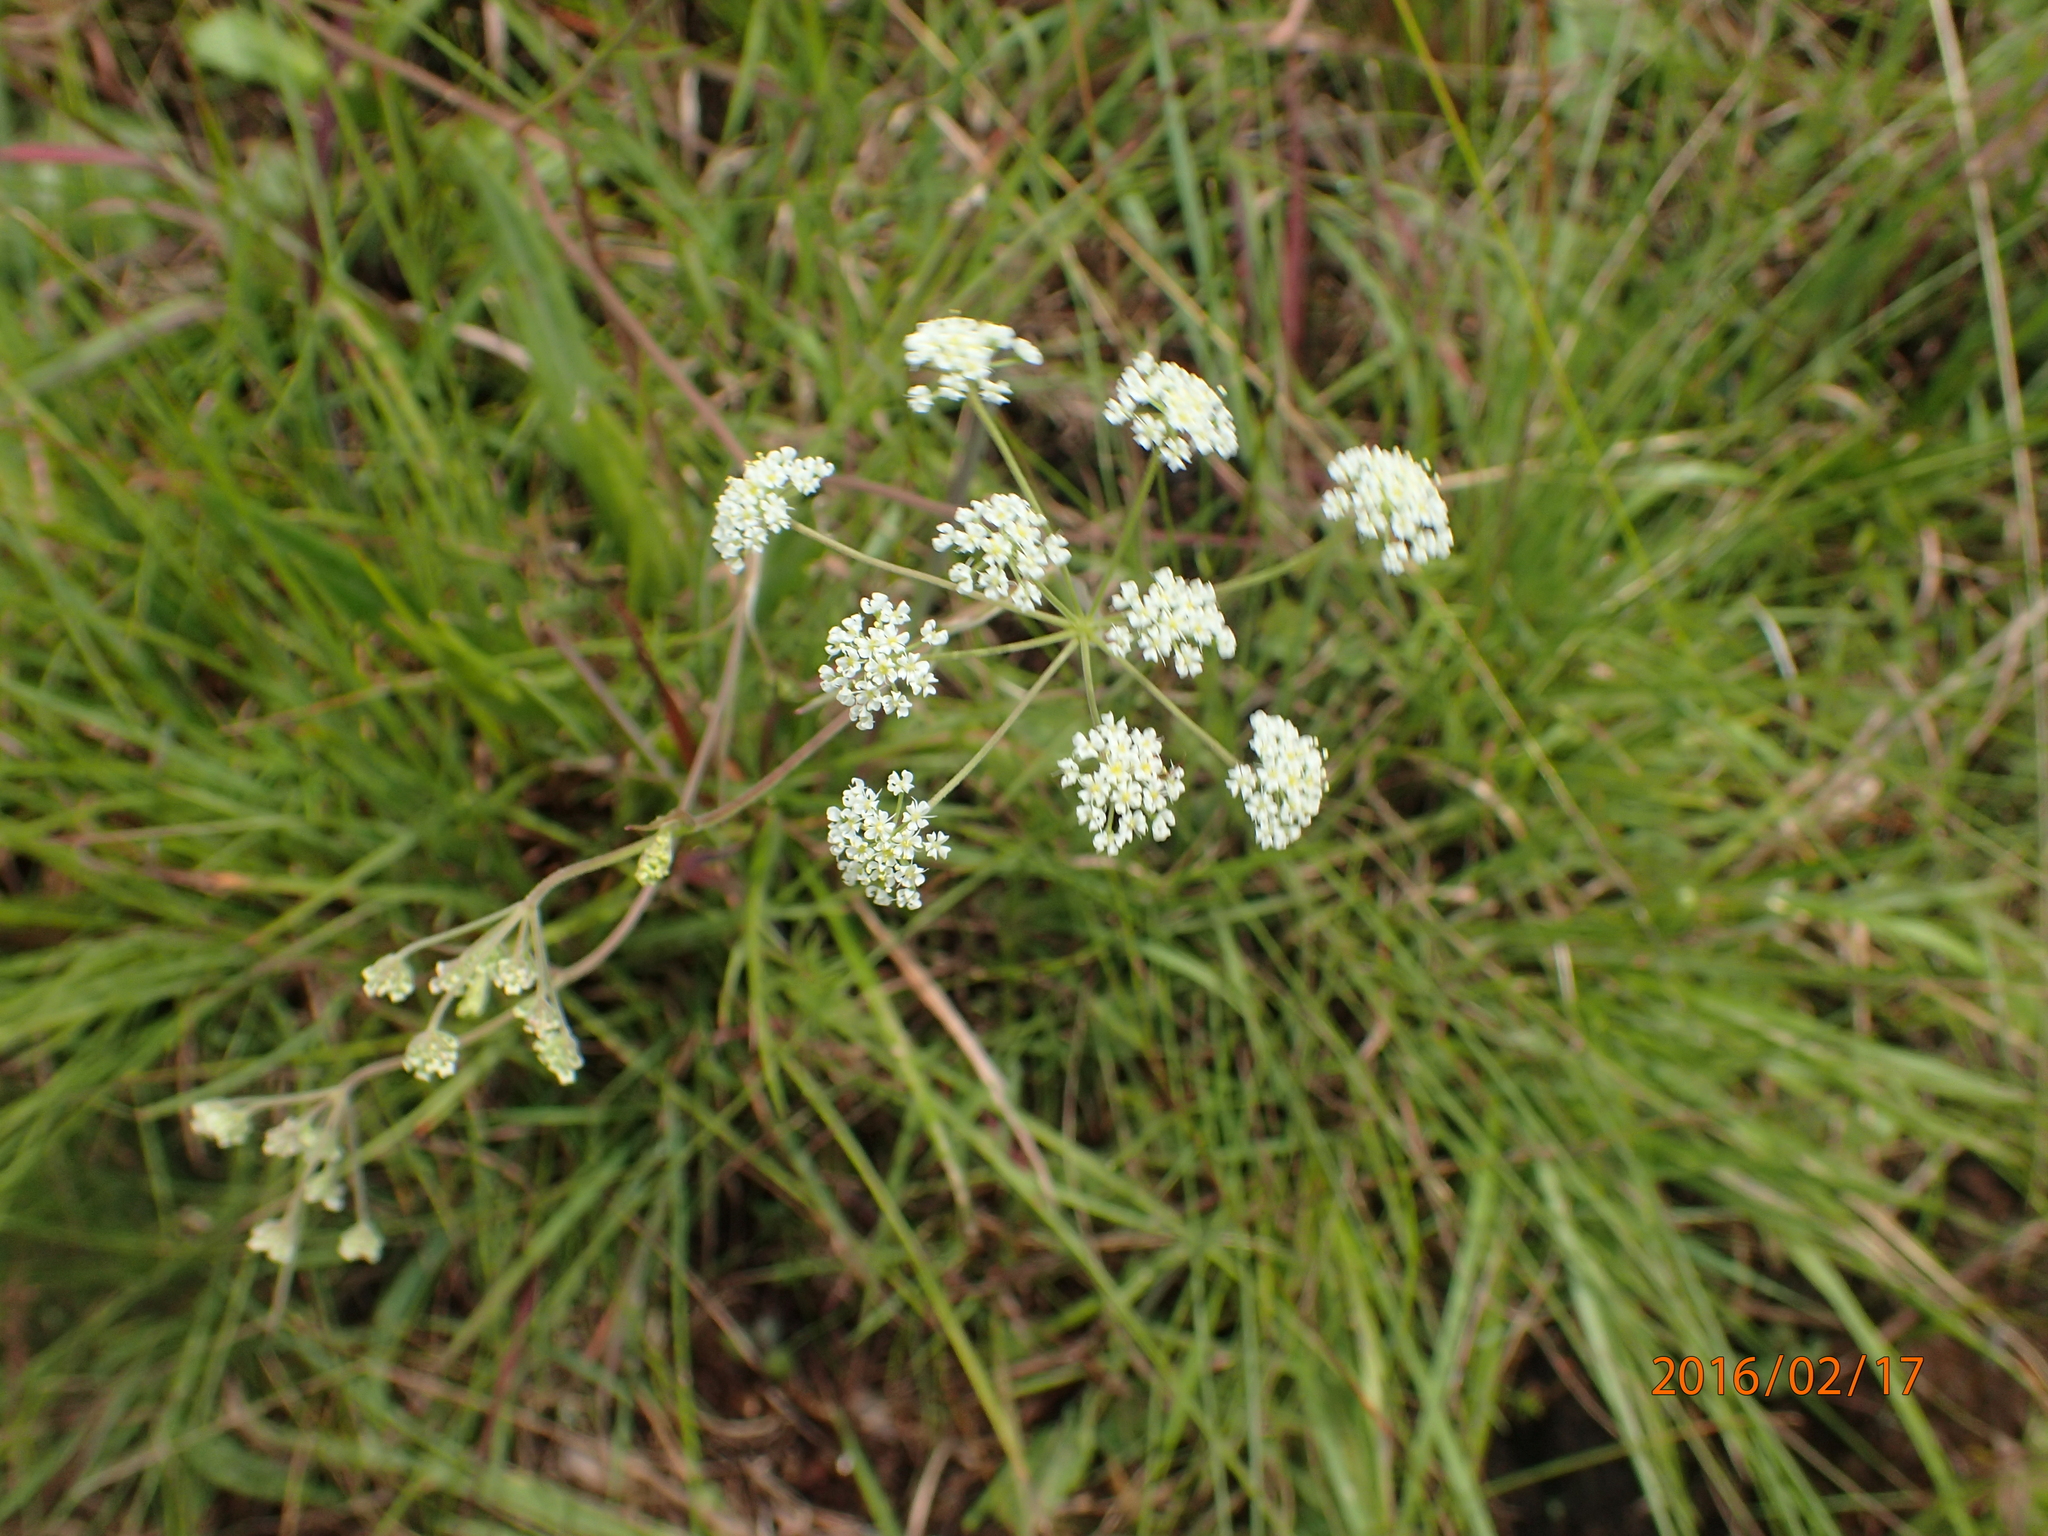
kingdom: Plantae
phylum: Tracheophyta
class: Magnoliopsida
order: Apiales
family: Apiaceae
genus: Pimpinella
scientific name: Pimpinella caffra
